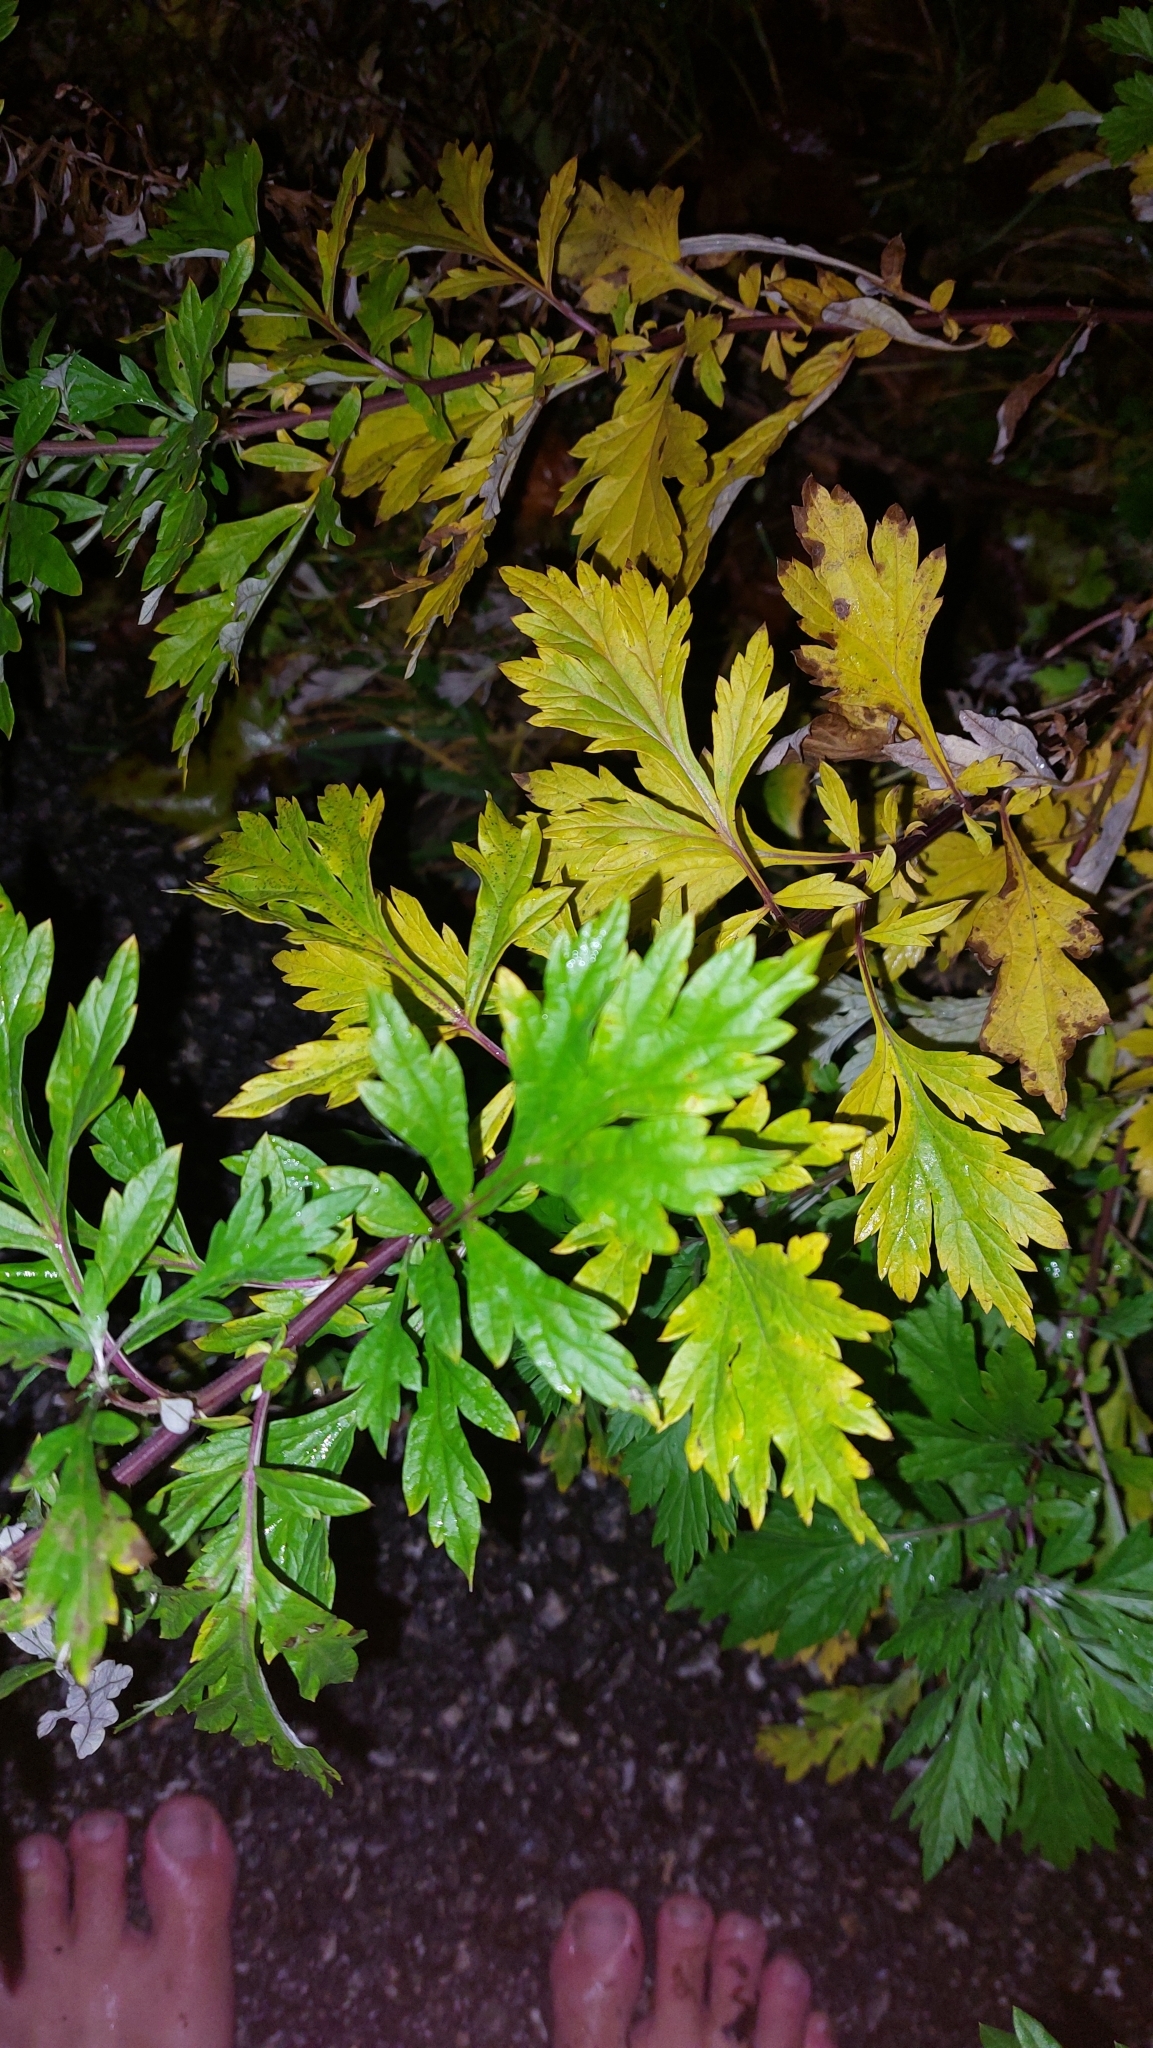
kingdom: Plantae
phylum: Tracheophyta
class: Magnoliopsida
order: Asterales
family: Asteraceae
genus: Artemisia
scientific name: Artemisia vulgaris
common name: Mugwort
